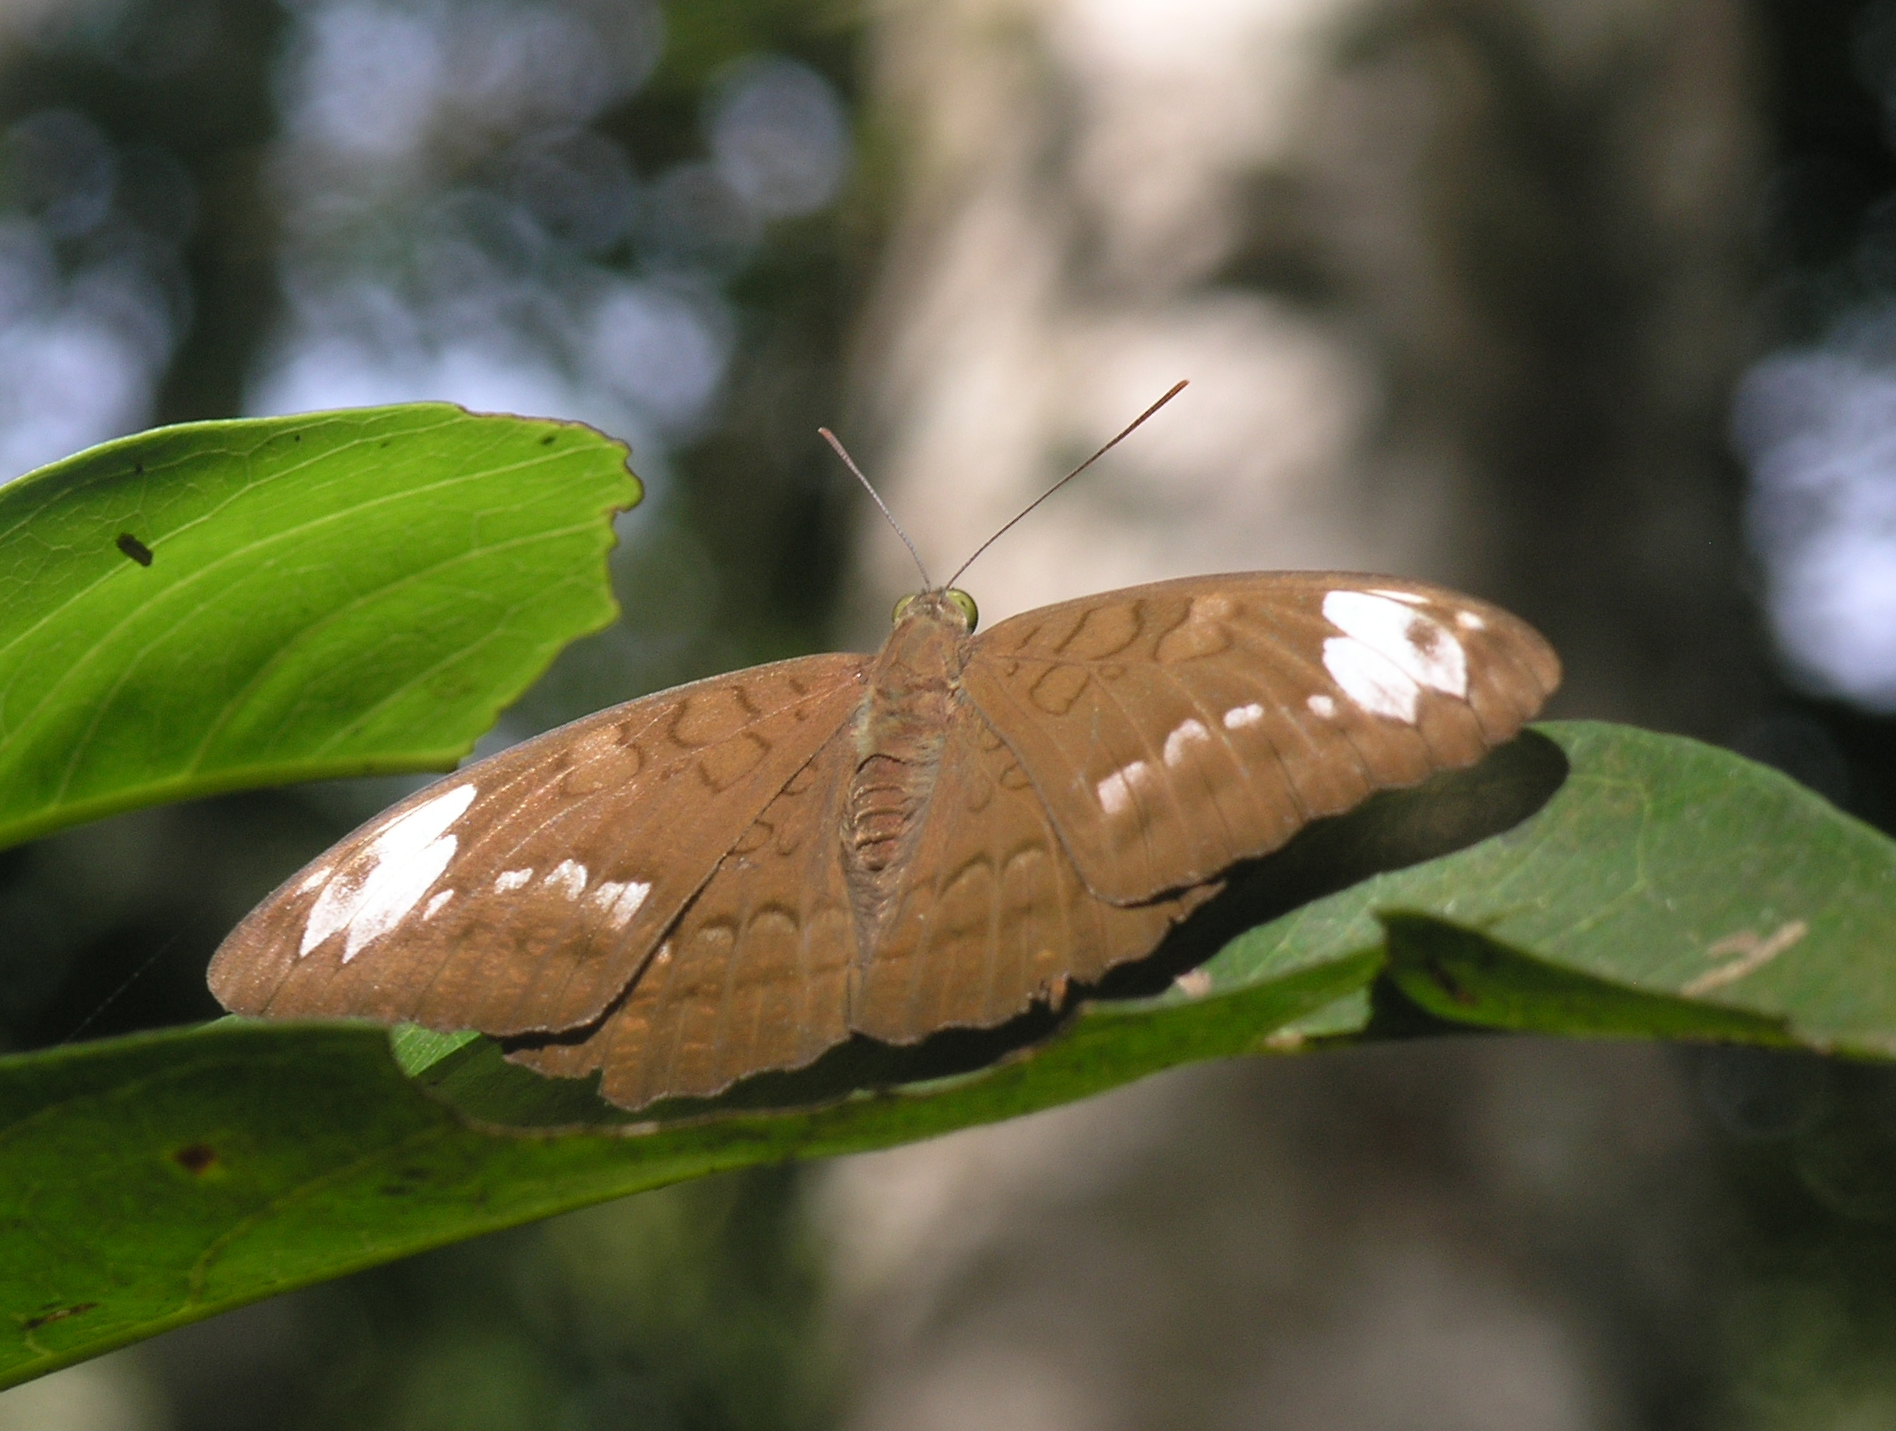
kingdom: Animalia
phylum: Arthropoda
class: Insecta
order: Lepidoptera
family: Nymphalidae
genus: Tanaecia
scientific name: Tanaecia julii
